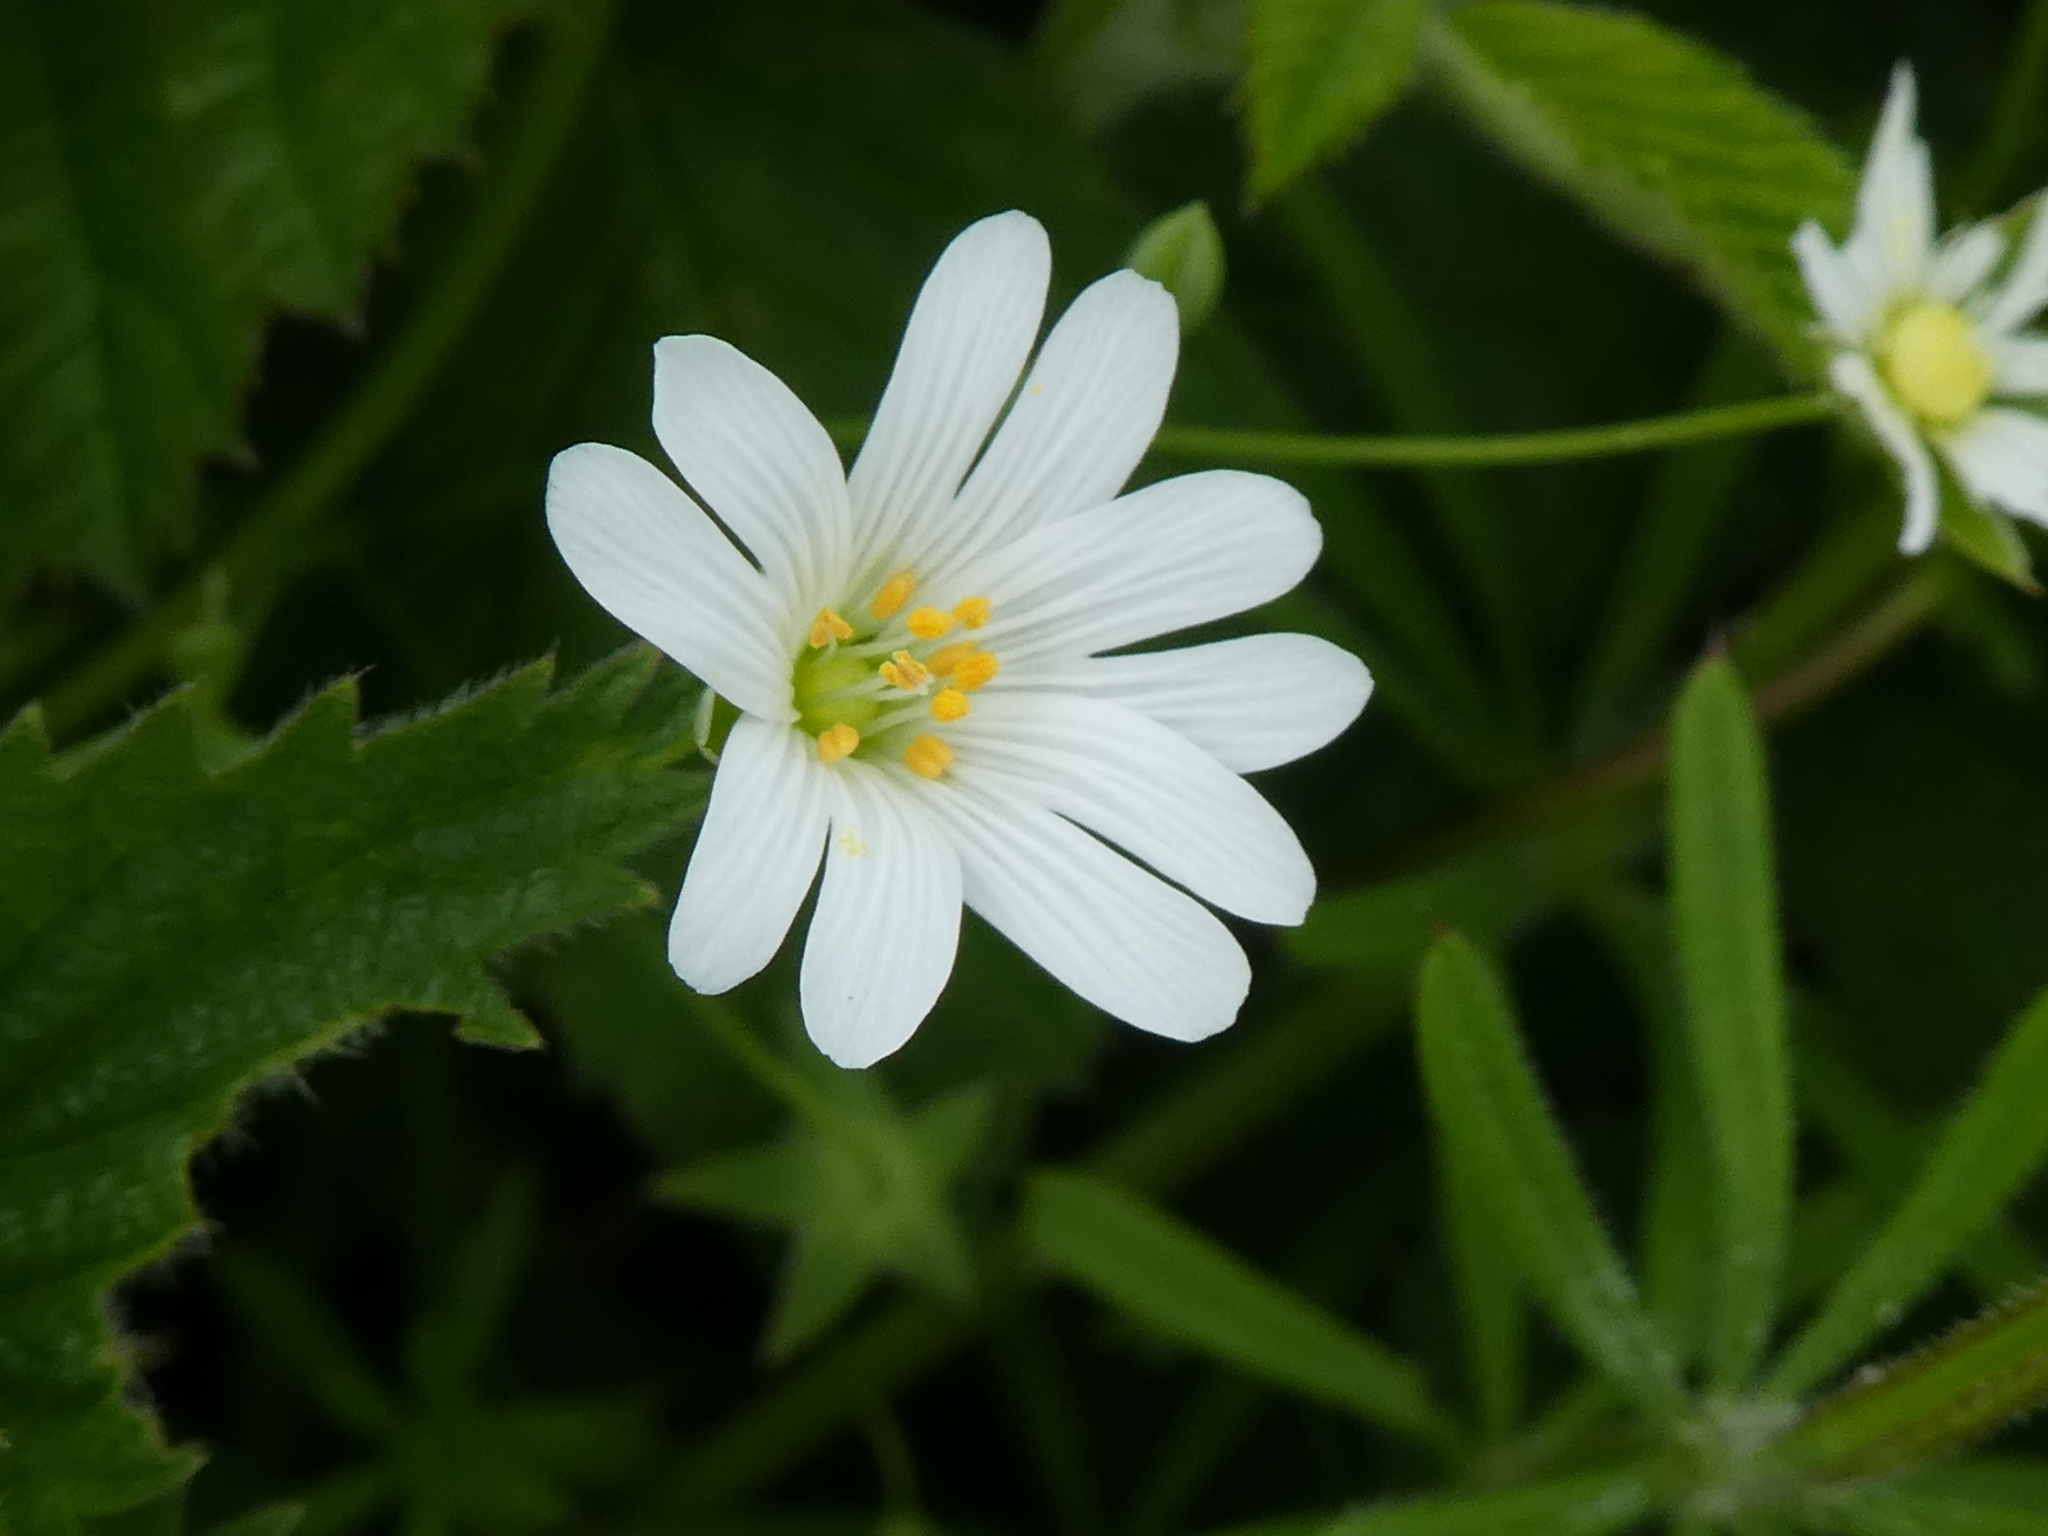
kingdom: Plantae
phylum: Tracheophyta
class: Magnoliopsida
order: Caryophyllales
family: Caryophyllaceae
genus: Rabelera
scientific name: Rabelera holostea
